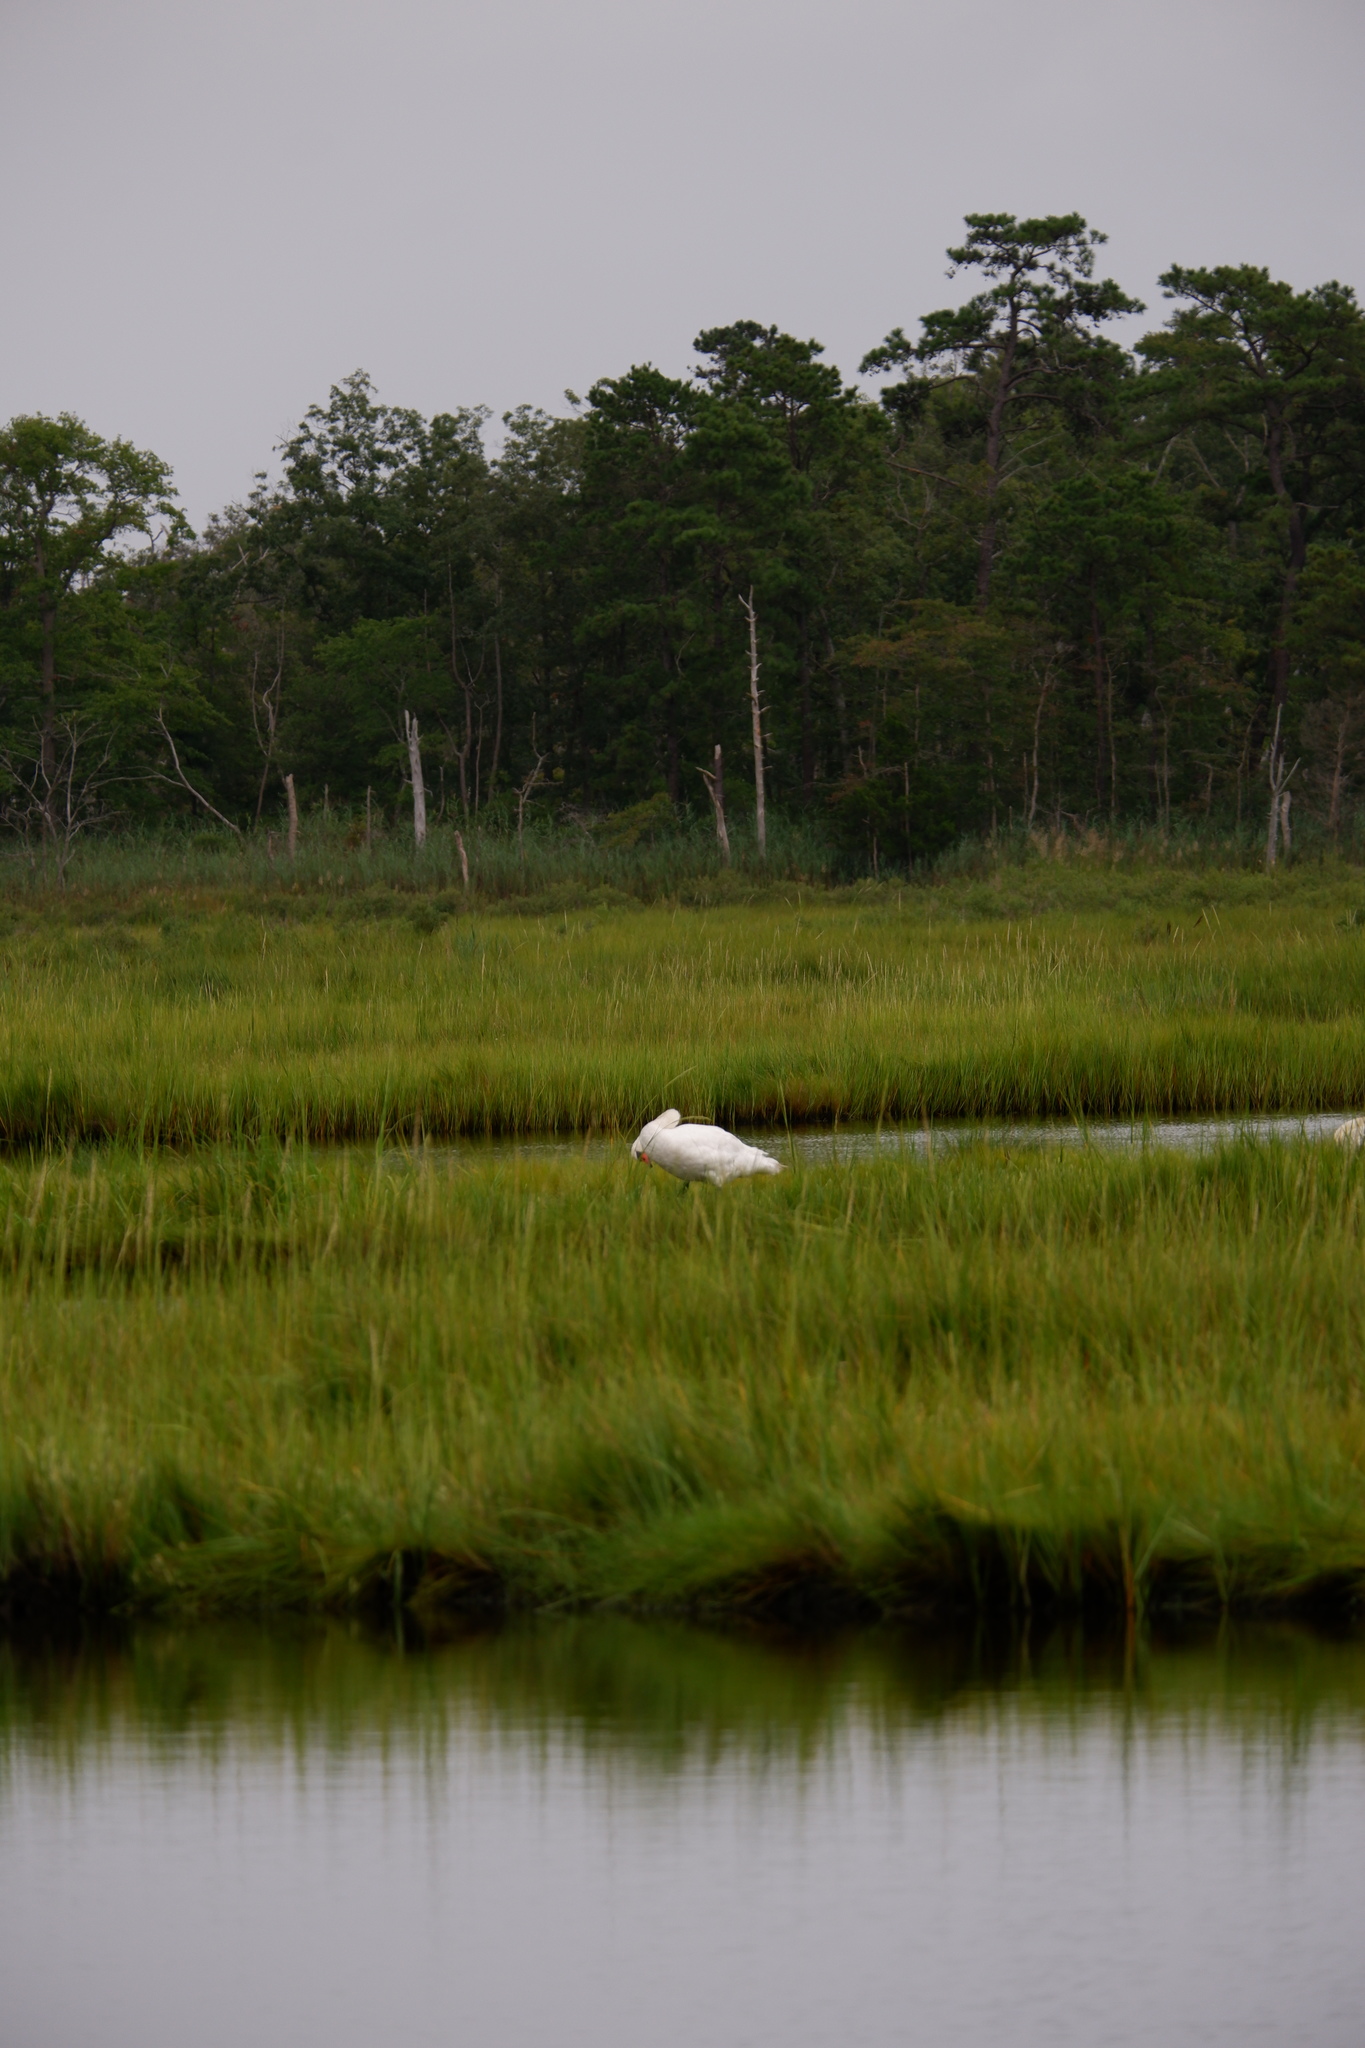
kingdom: Animalia
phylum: Chordata
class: Aves
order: Anseriformes
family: Anatidae
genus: Cygnus
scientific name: Cygnus olor
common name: Mute swan
